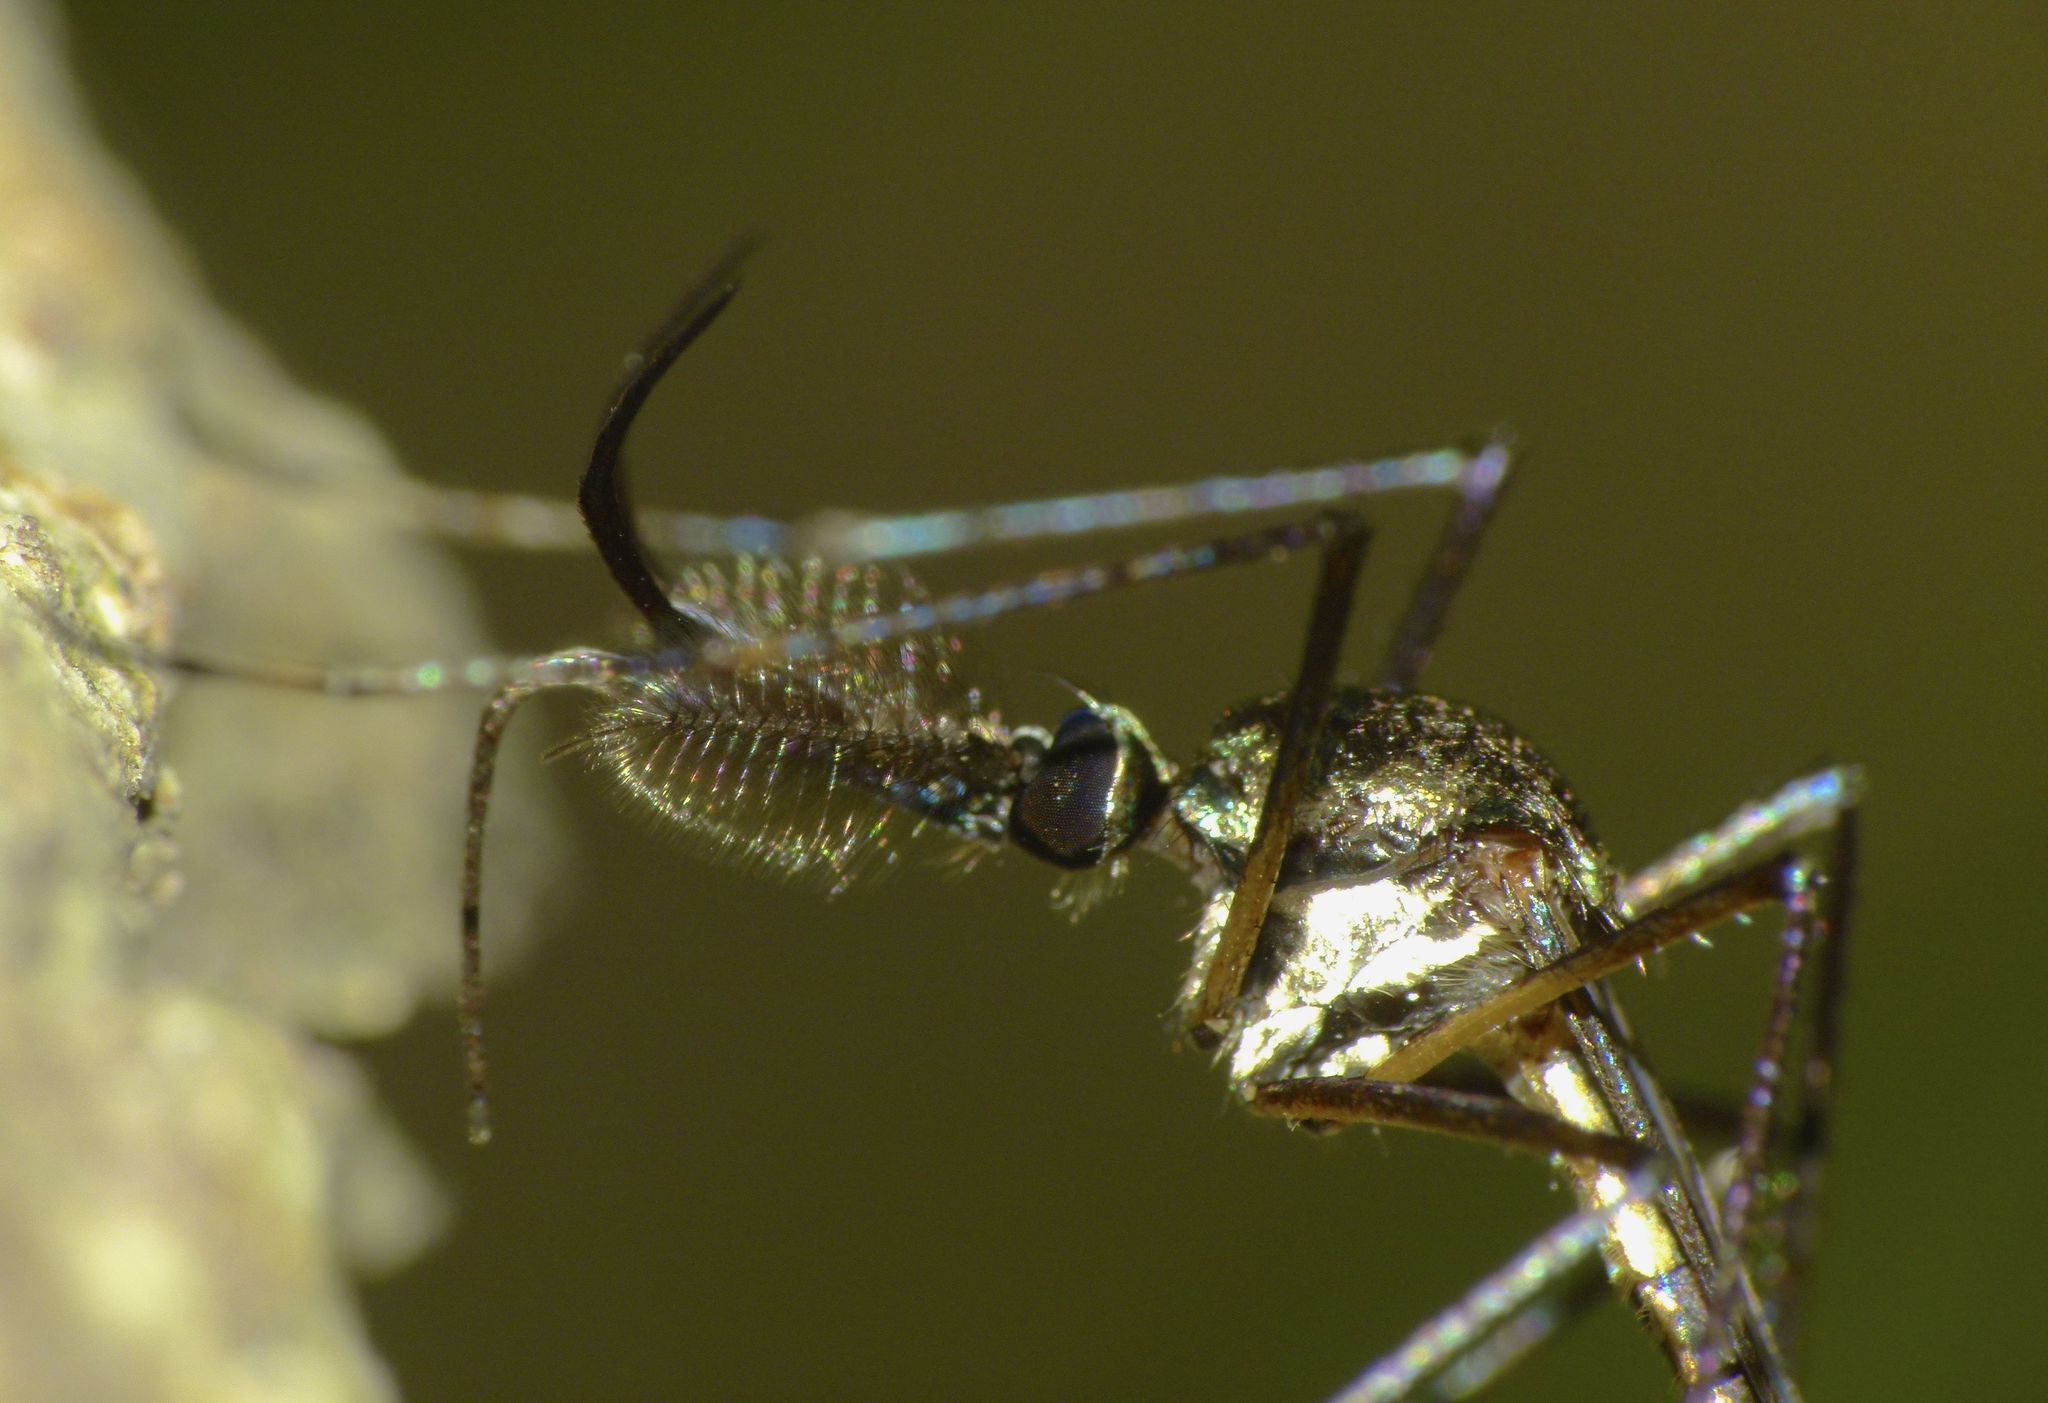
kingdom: Animalia
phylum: Arthropoda
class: Insecta
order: Diptera
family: Culicidae
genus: Toxorhynchites
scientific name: Toxorhynchites speciosus
